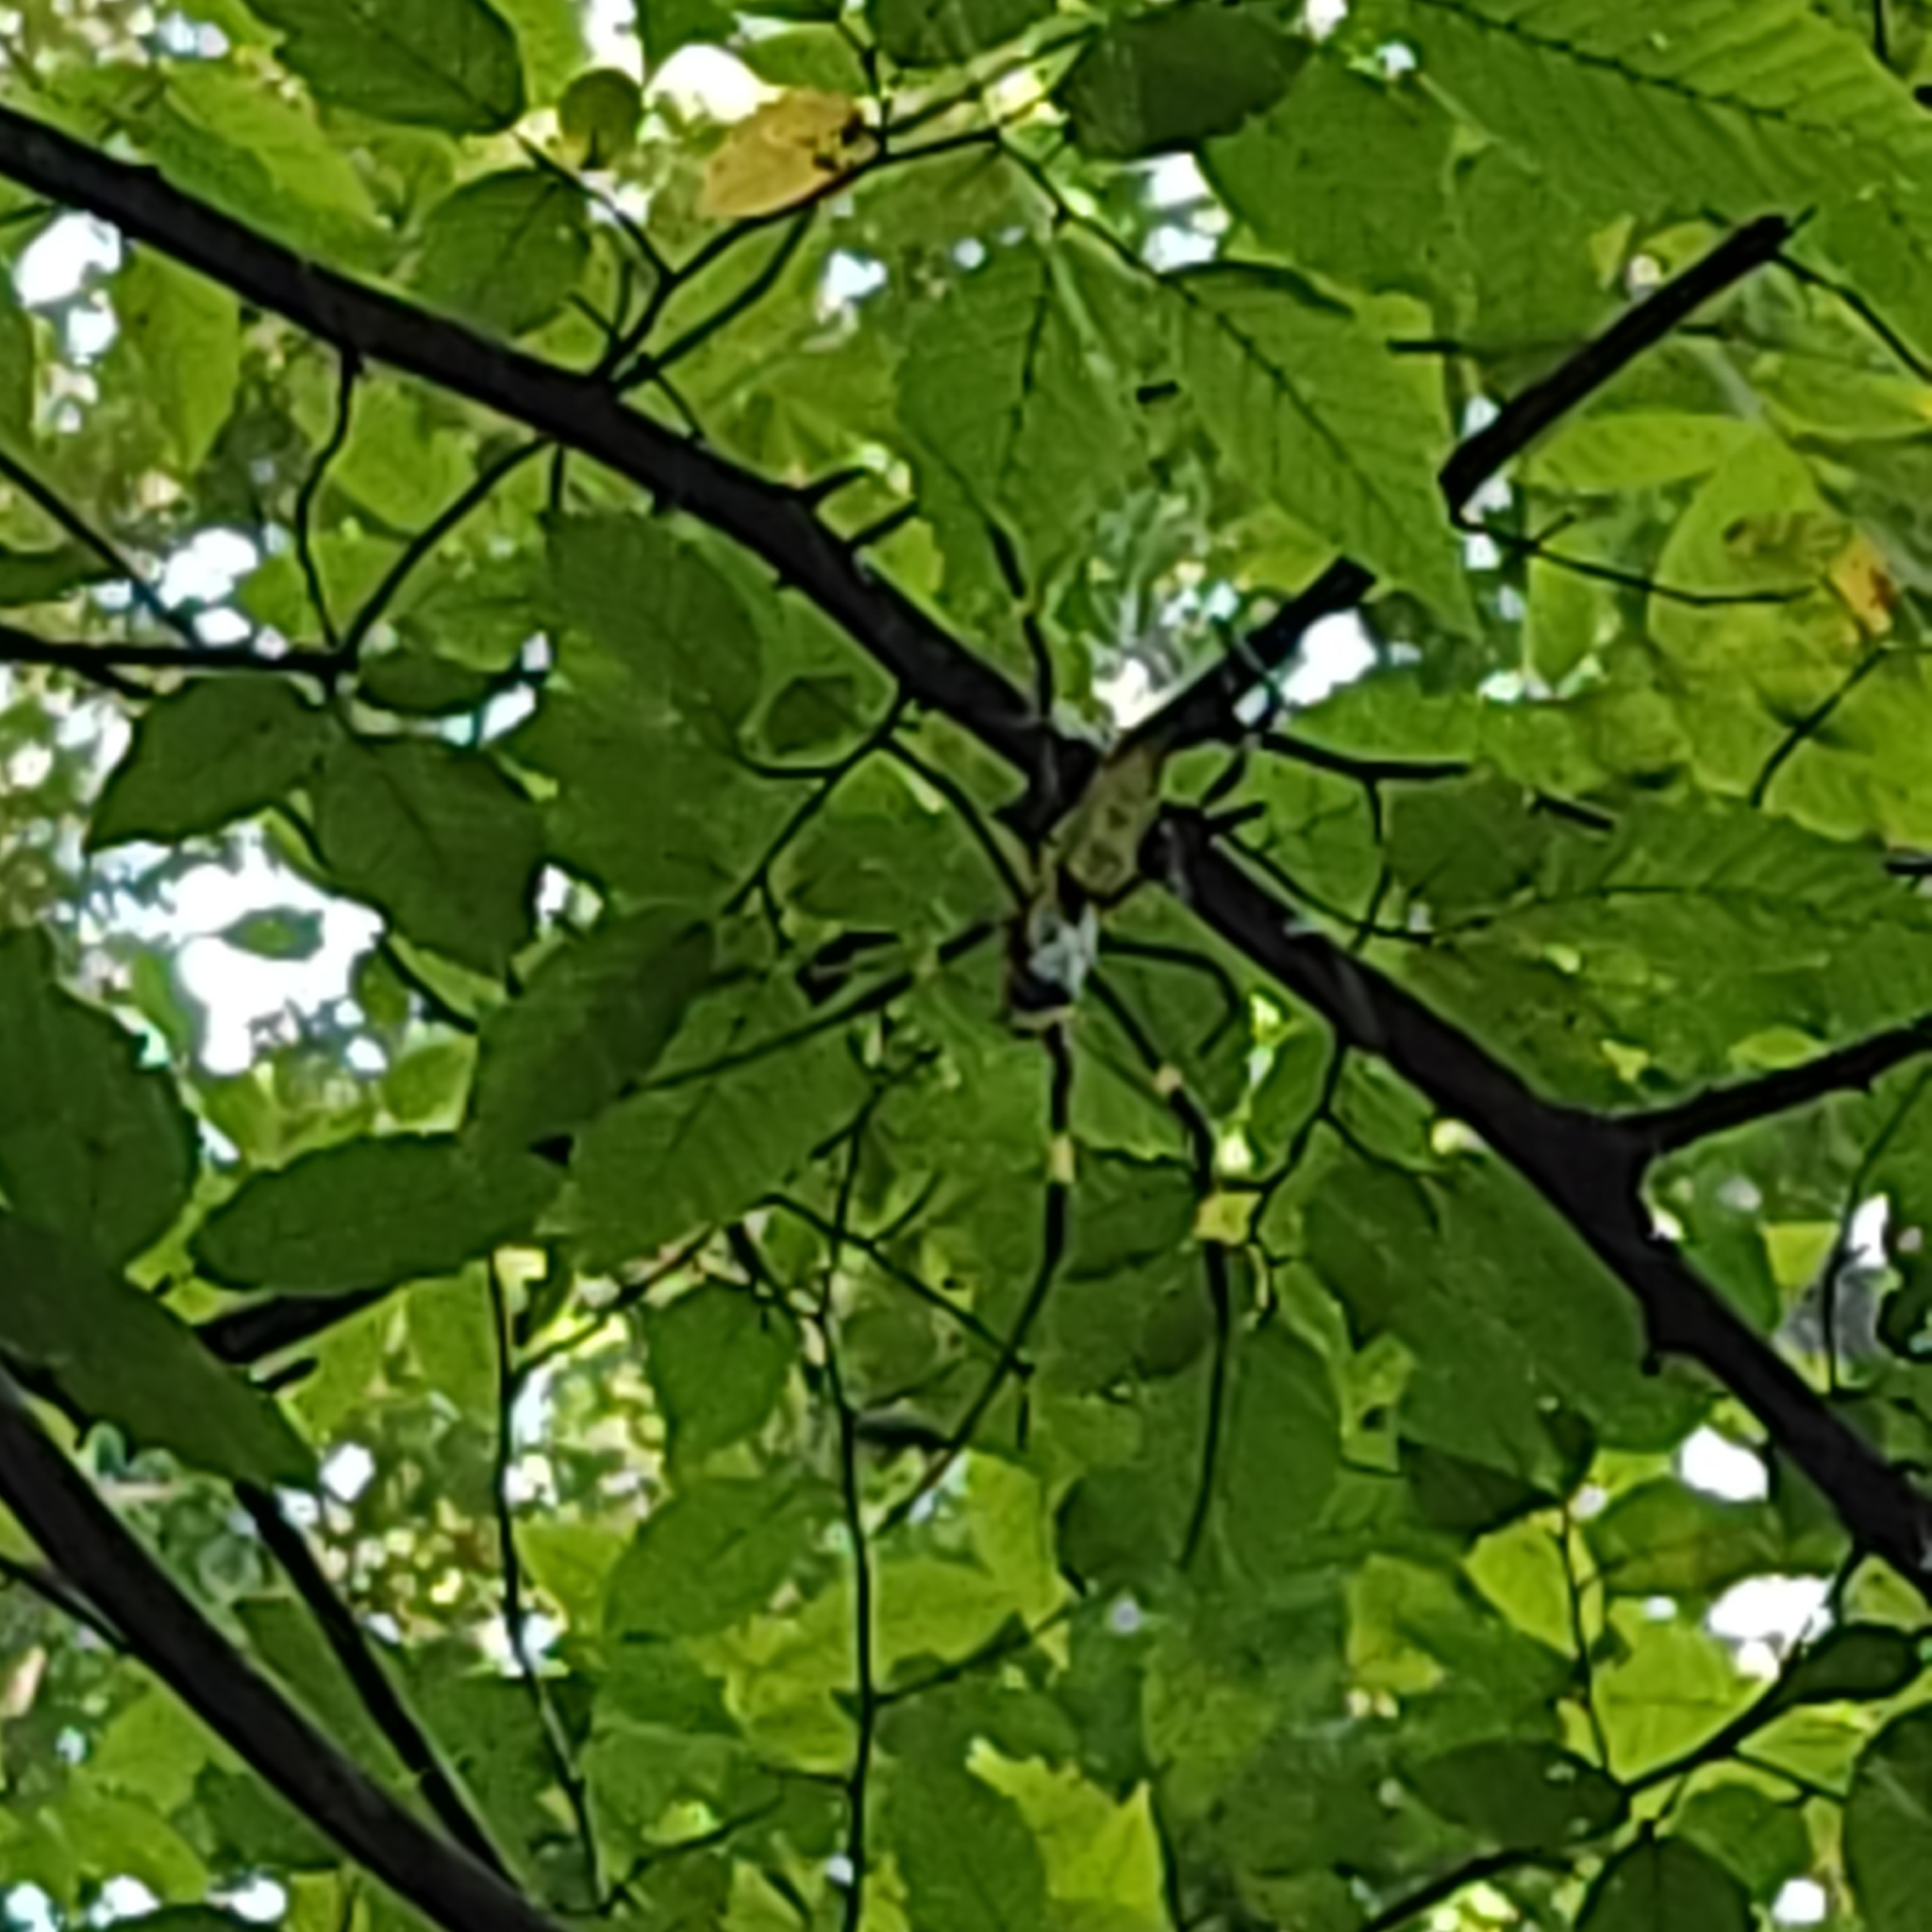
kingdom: Animalia
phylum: Arthropoda
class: Arachnida
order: Araneae
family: Araneidae
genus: Trichonephila
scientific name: Trichonephila clavata
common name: Jorō spider
